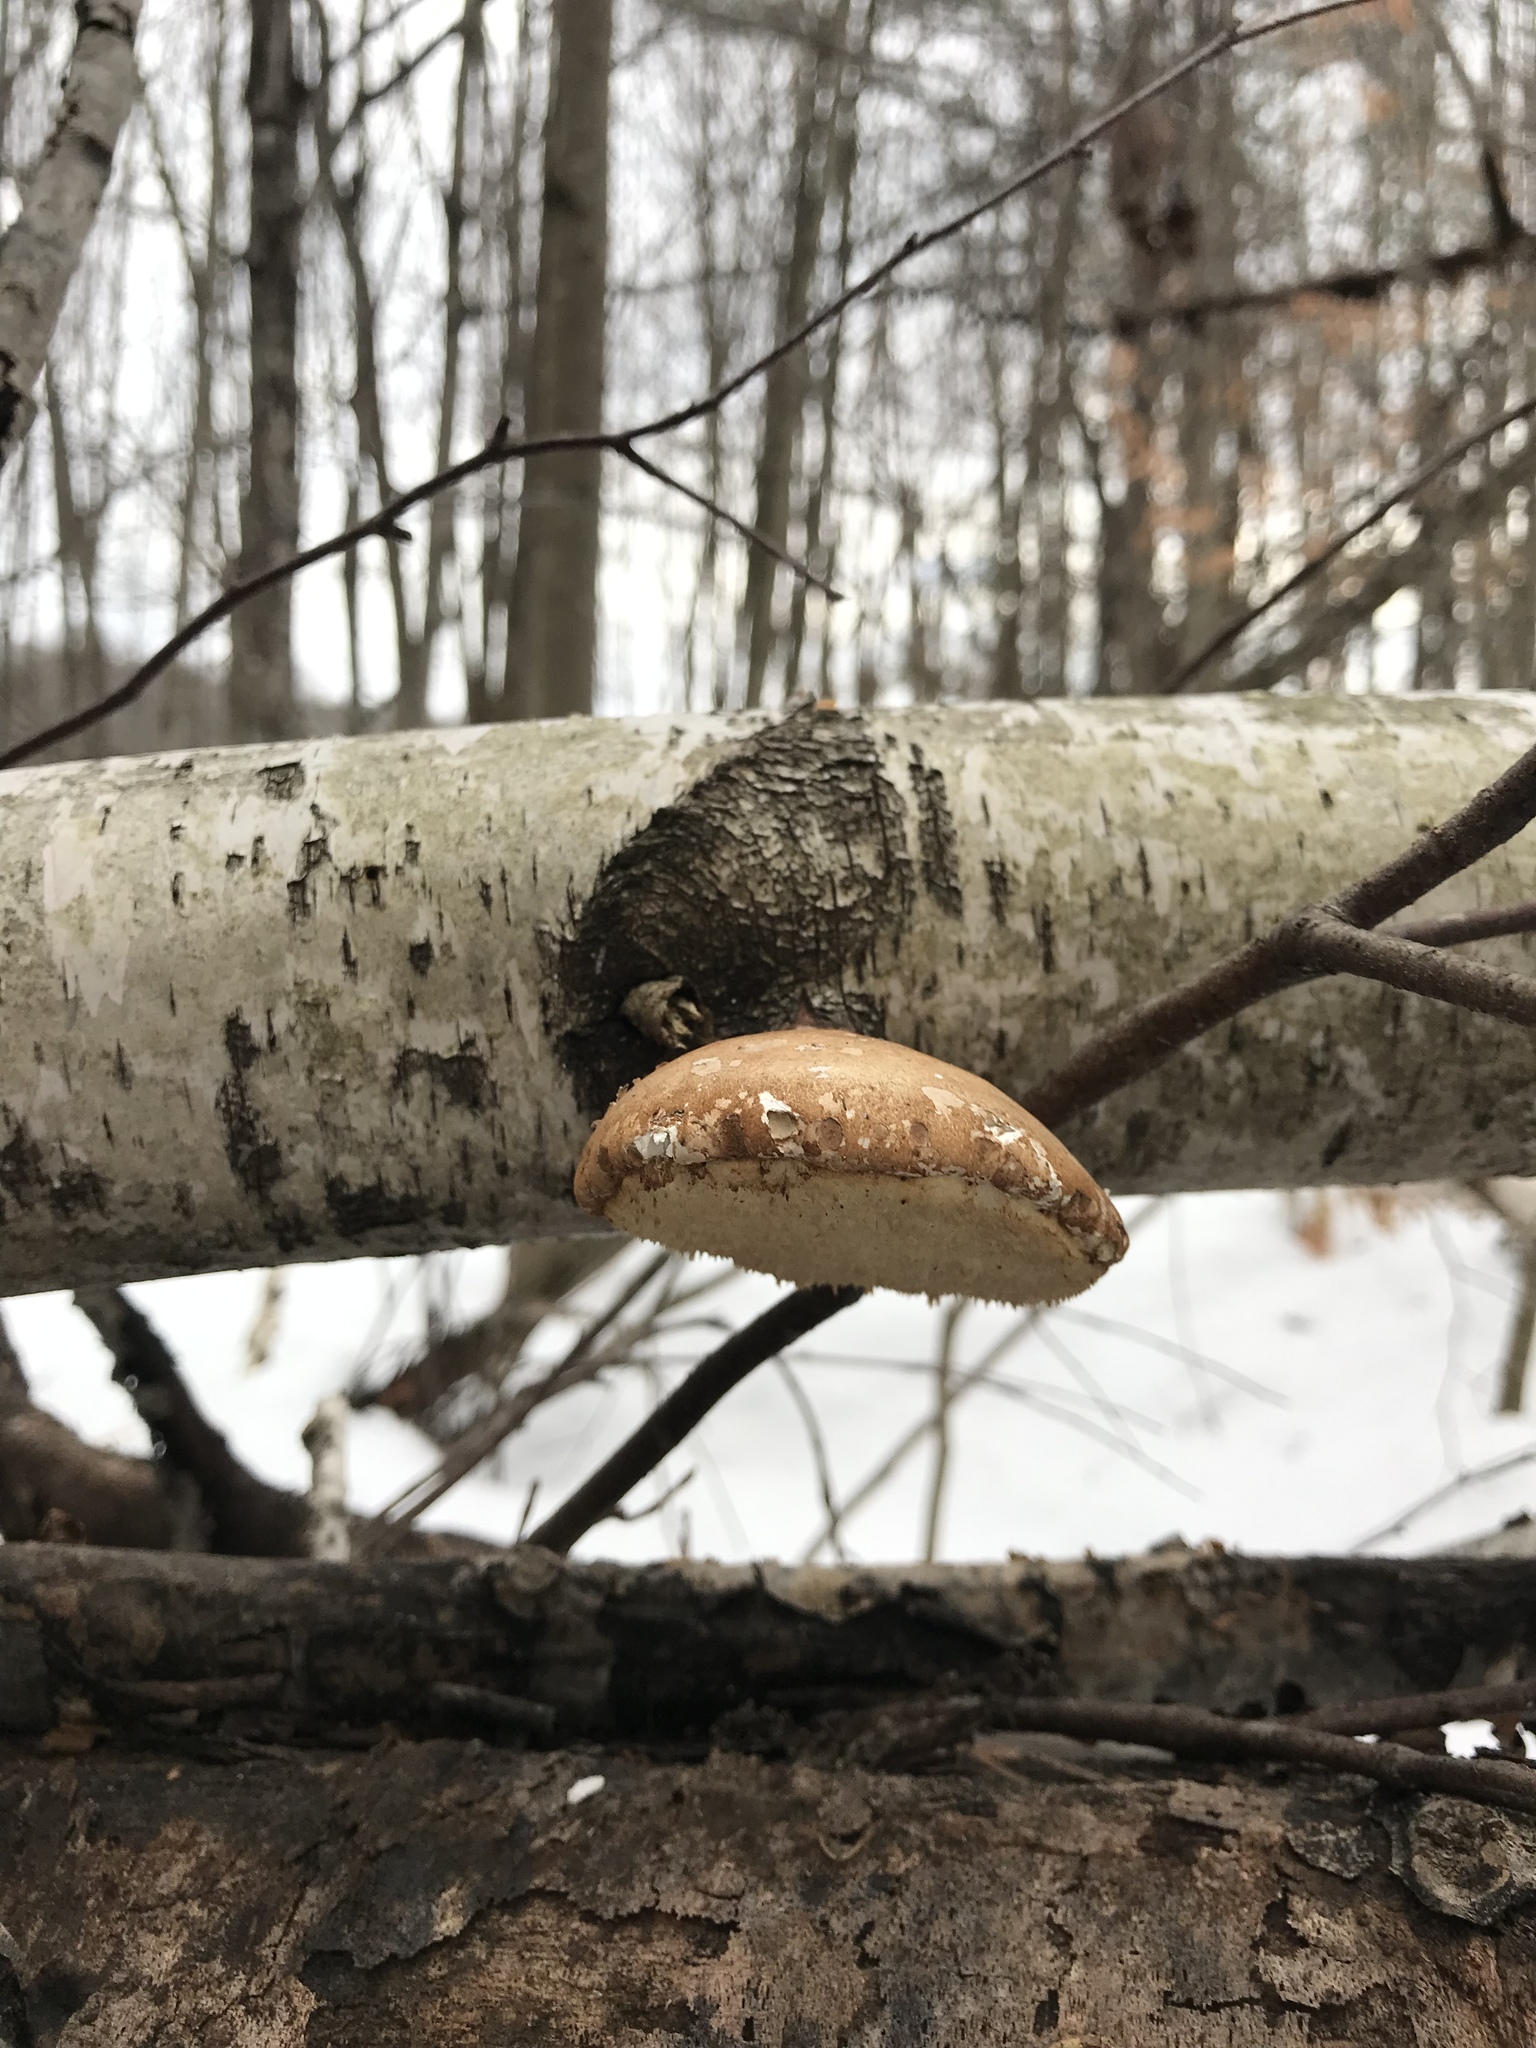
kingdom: Fungi
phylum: Basidiomycota
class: Agaricomycetes
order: Polyporales
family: Fomitopsidaceae
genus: Fomitopsis
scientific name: Fomitopsis betulina
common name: Birch polypore
